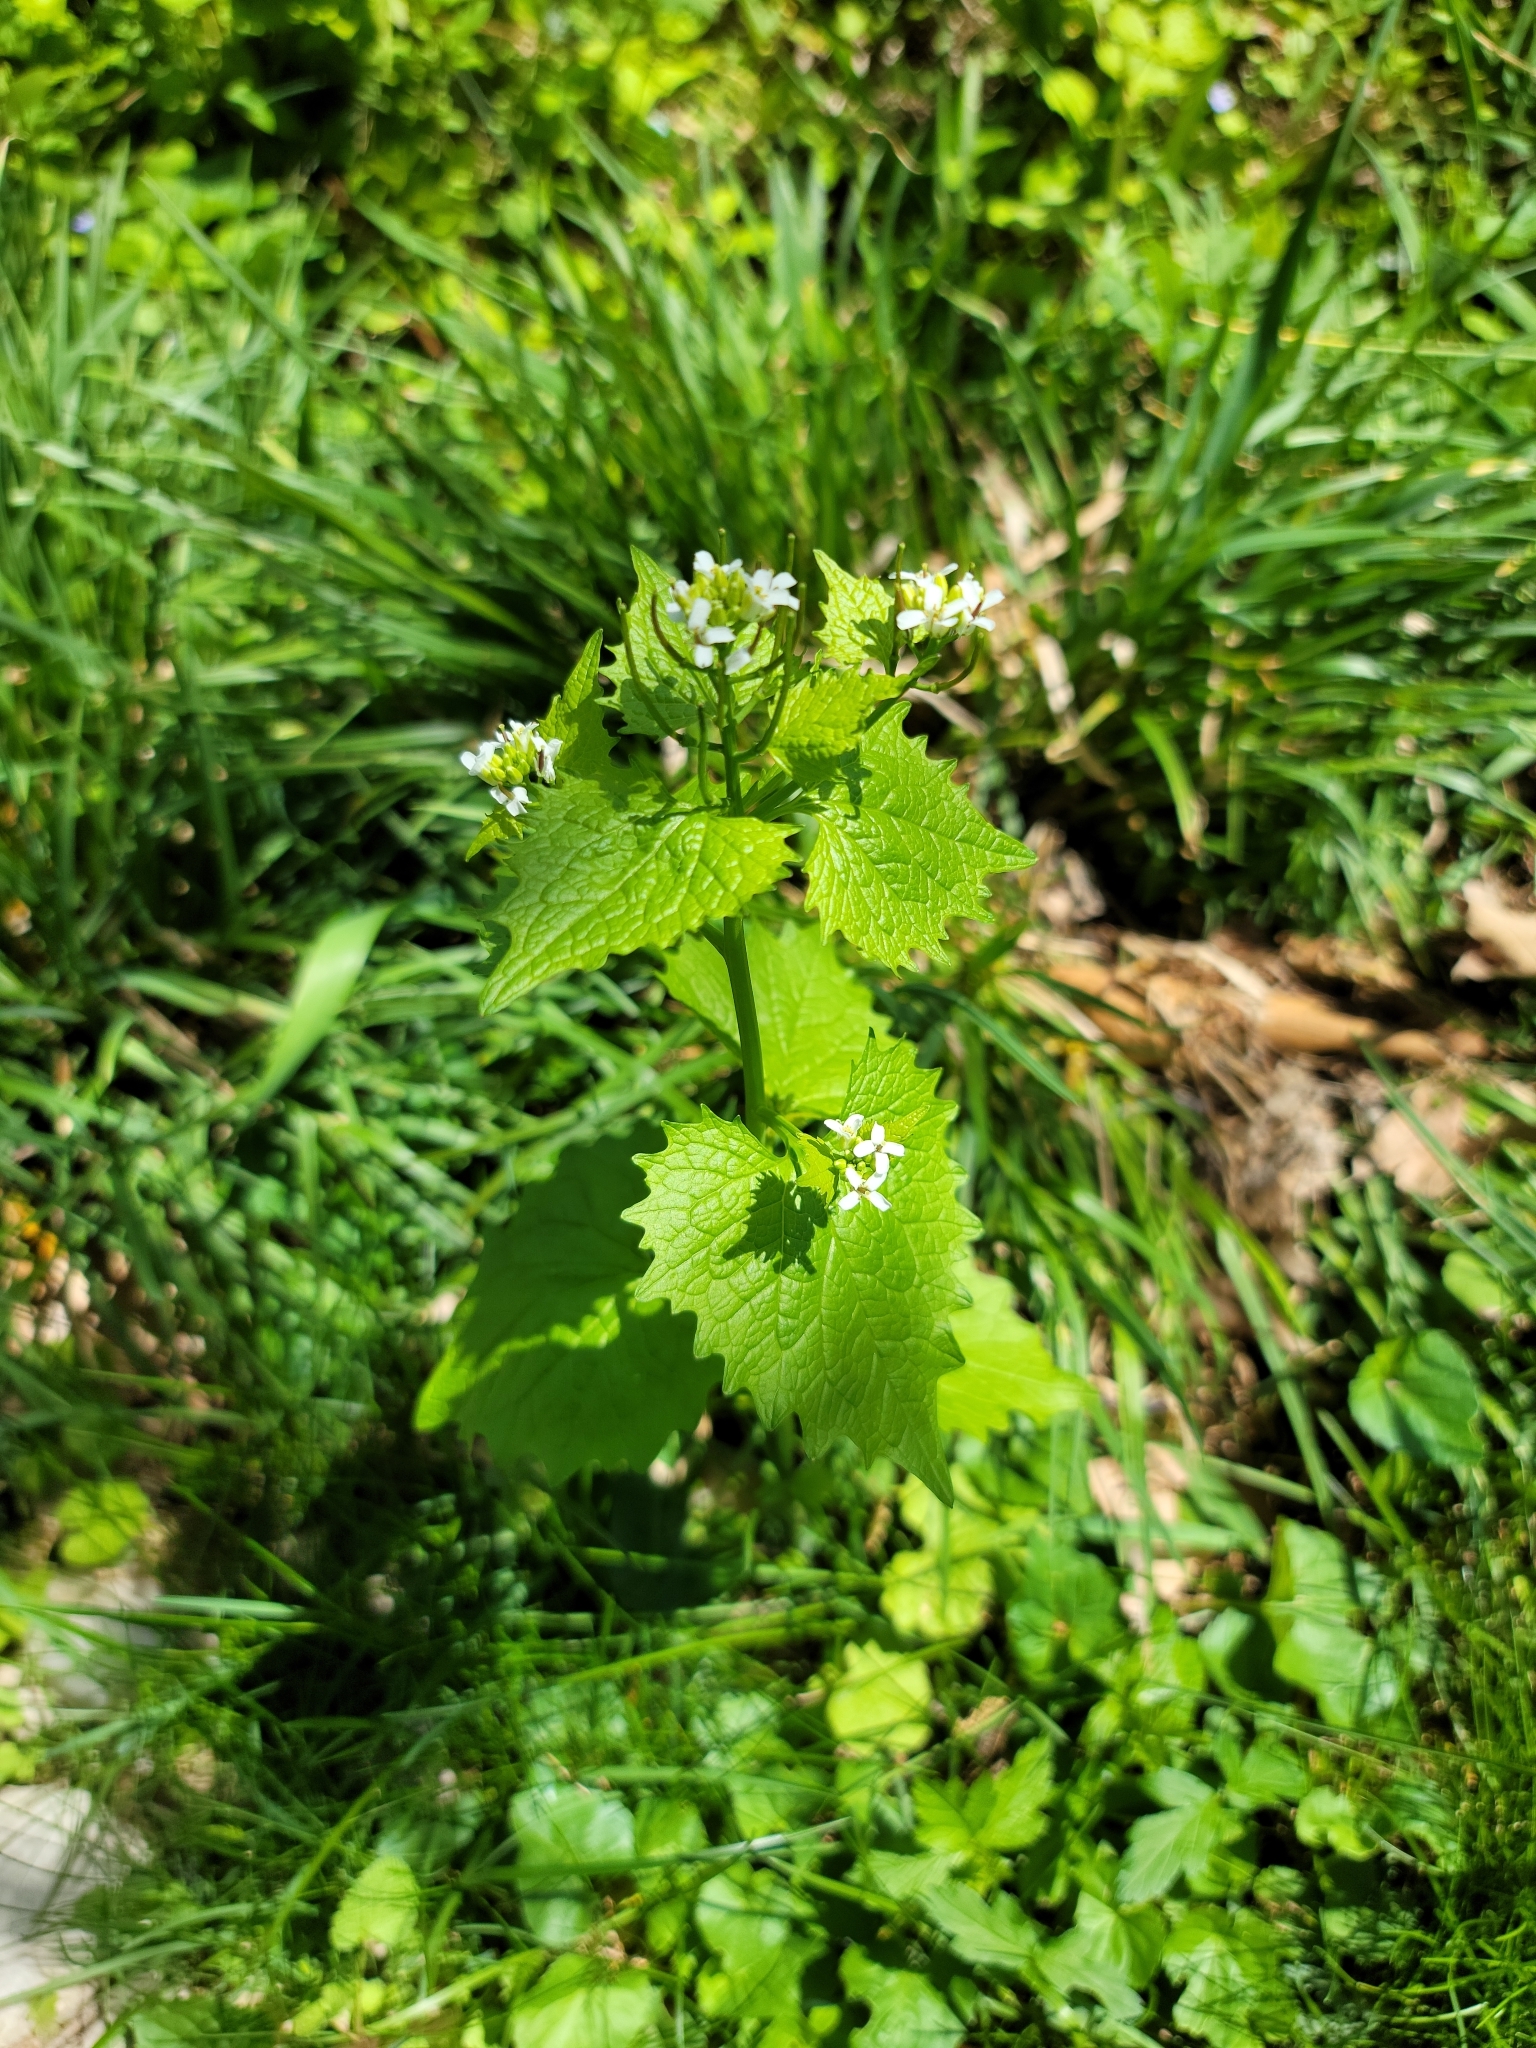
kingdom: Plantae
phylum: Tracheophyta
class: Magnoliopsida
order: Brassicales
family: Brassicaceae
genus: Alliaria
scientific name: Alliaria petiolata
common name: Garlic mustard
